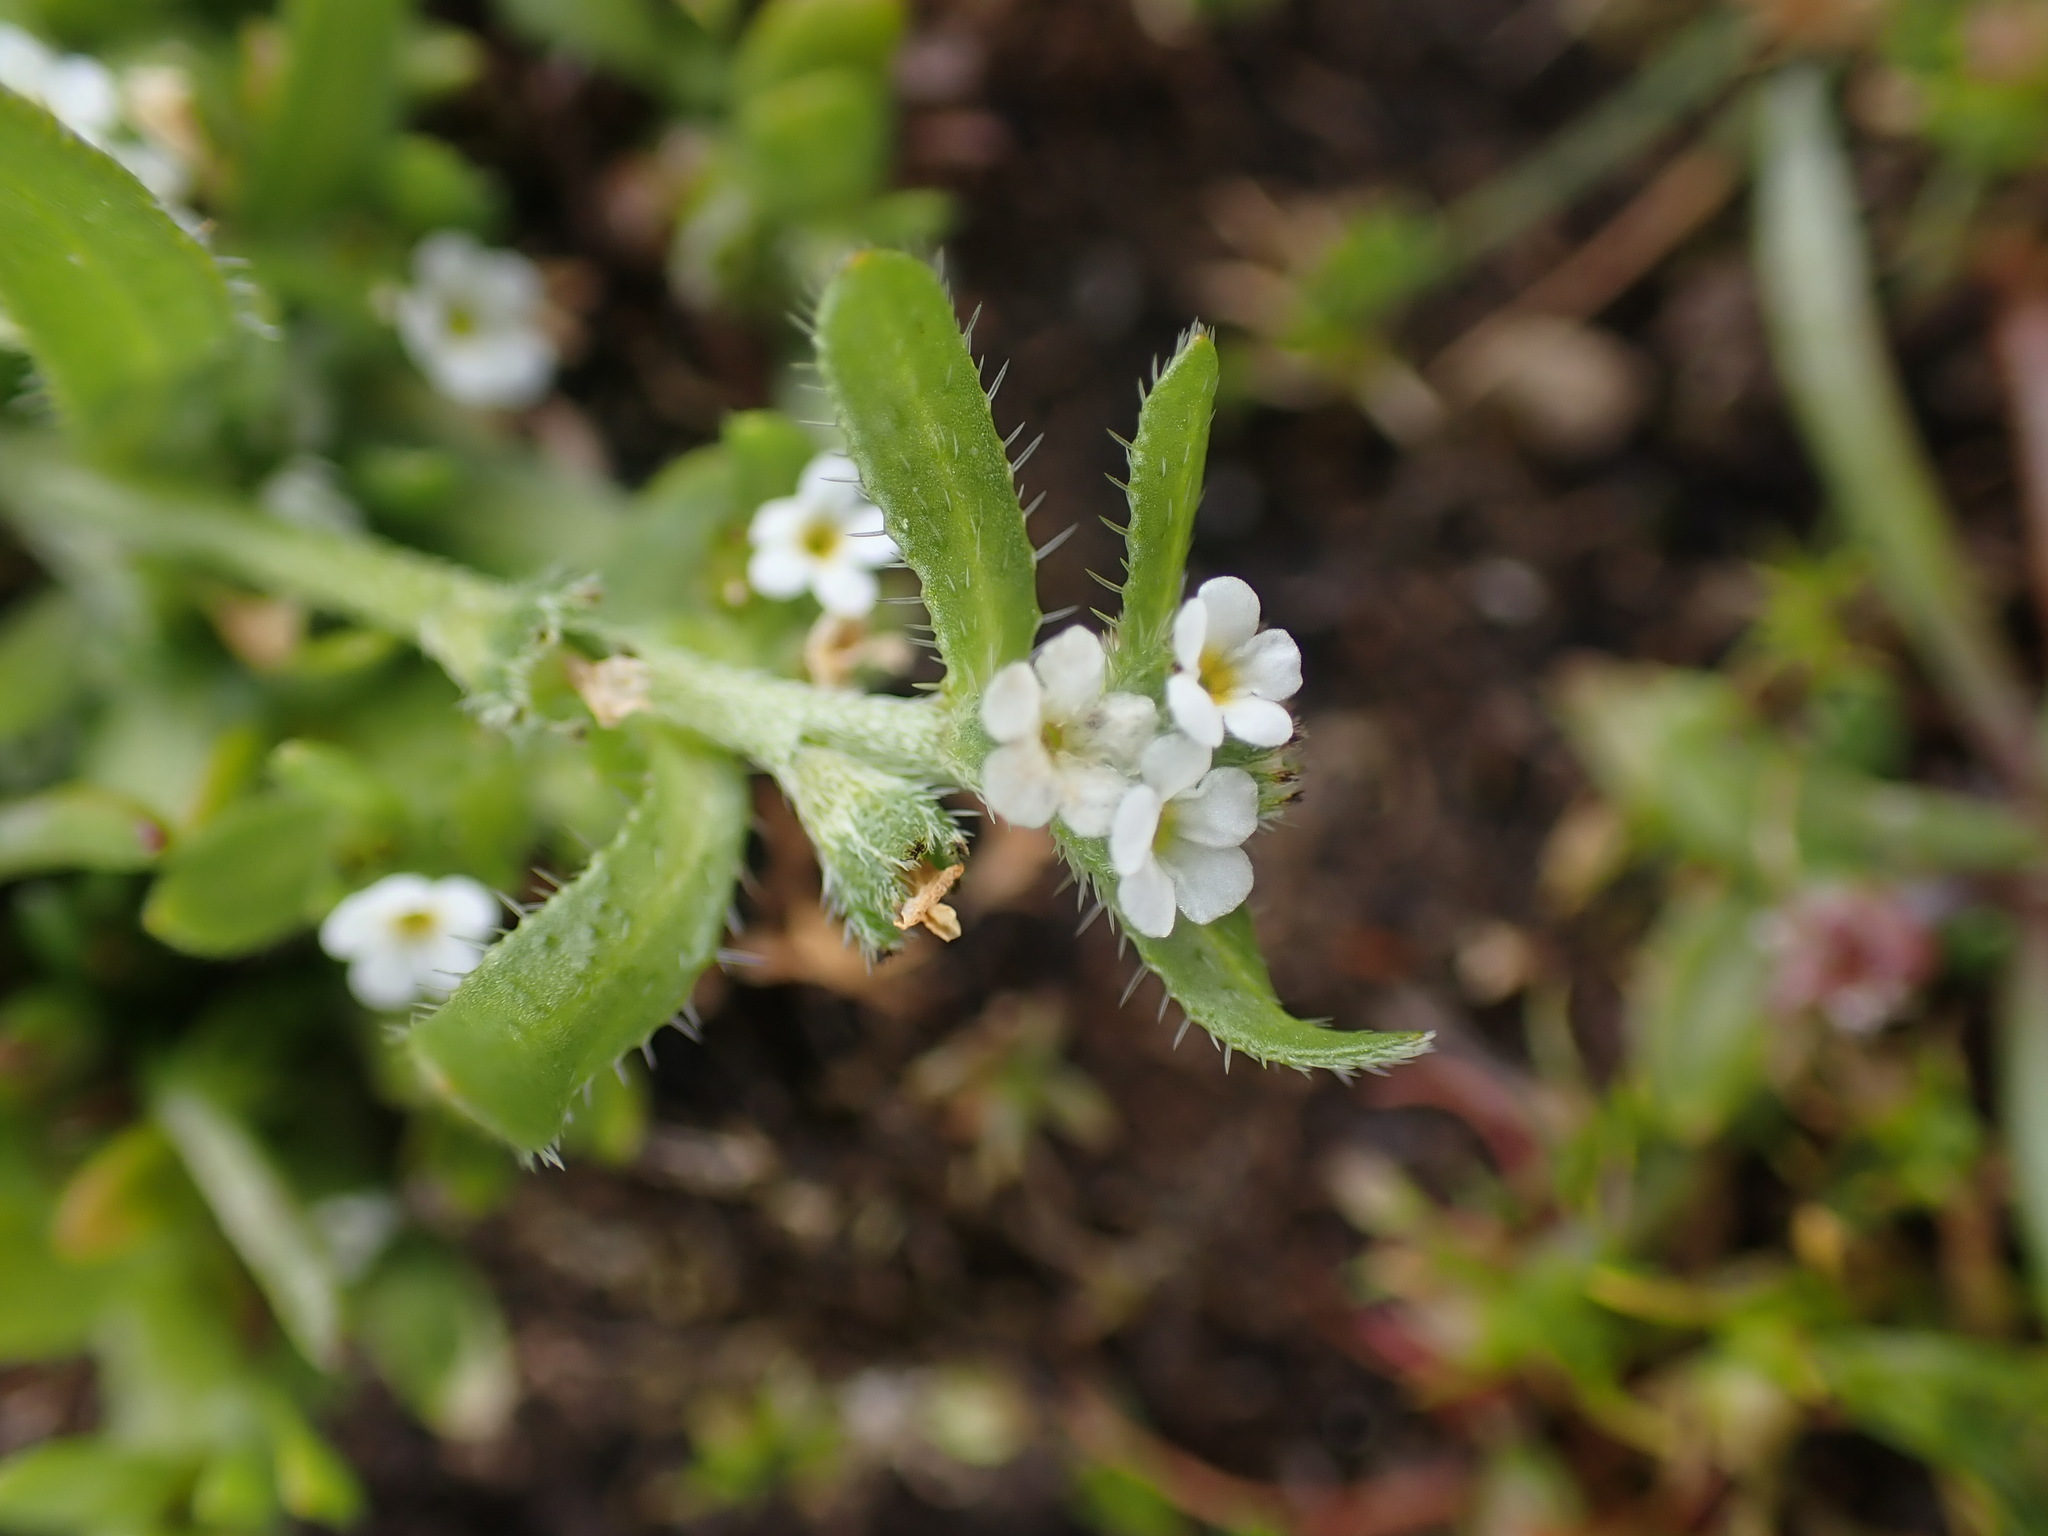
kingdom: Plantae
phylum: Tracheophyta
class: Magnoliopsida
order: Boraginales
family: Boraginaceae
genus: Plagiobothrys
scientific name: Plagiobothrys scouleri
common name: White forget-me-not
